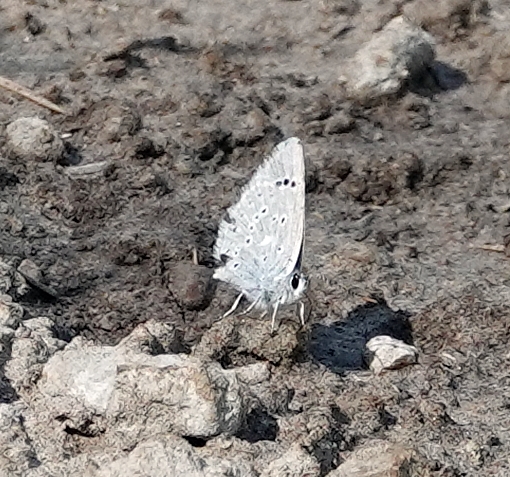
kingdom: Animalia
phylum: Arthropoda
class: Insecta
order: Lepidoptera
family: Lycaenidae
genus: Echinargus
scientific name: Echinargus isola
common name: Reakirt's blue
